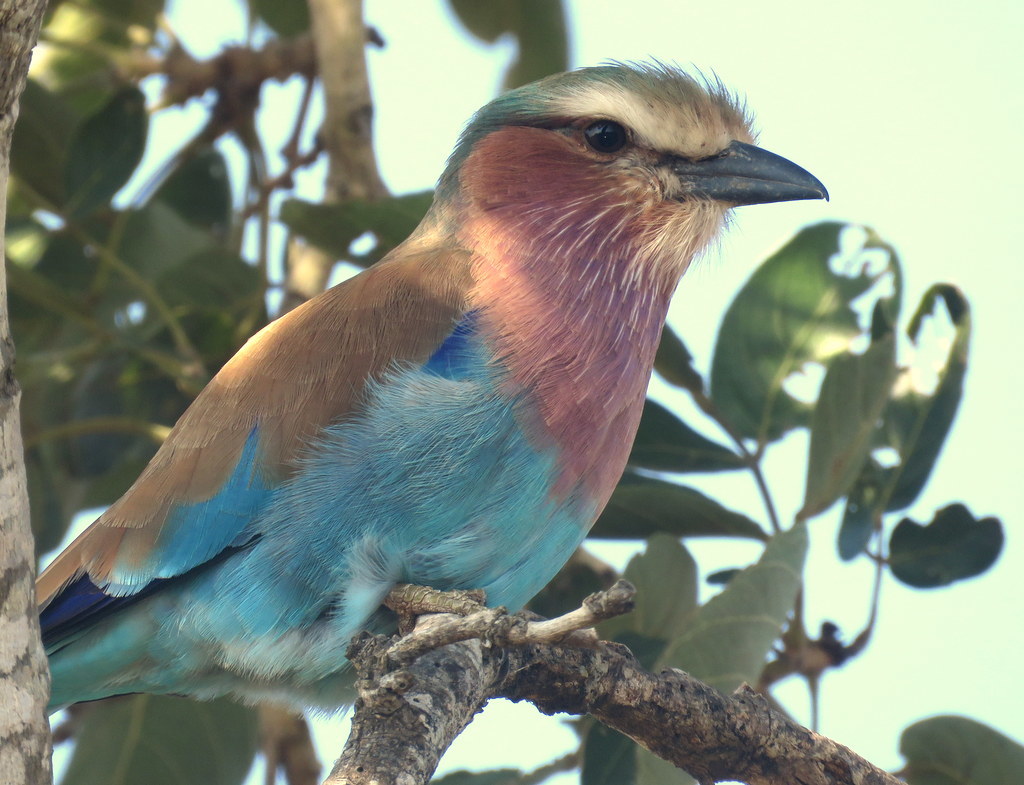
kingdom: Animalia
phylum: Chordata
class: Aves
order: Coraciiformes
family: Coraciidae
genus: Coracias
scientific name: Coracias caudatus
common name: Lilac-breasted roller
